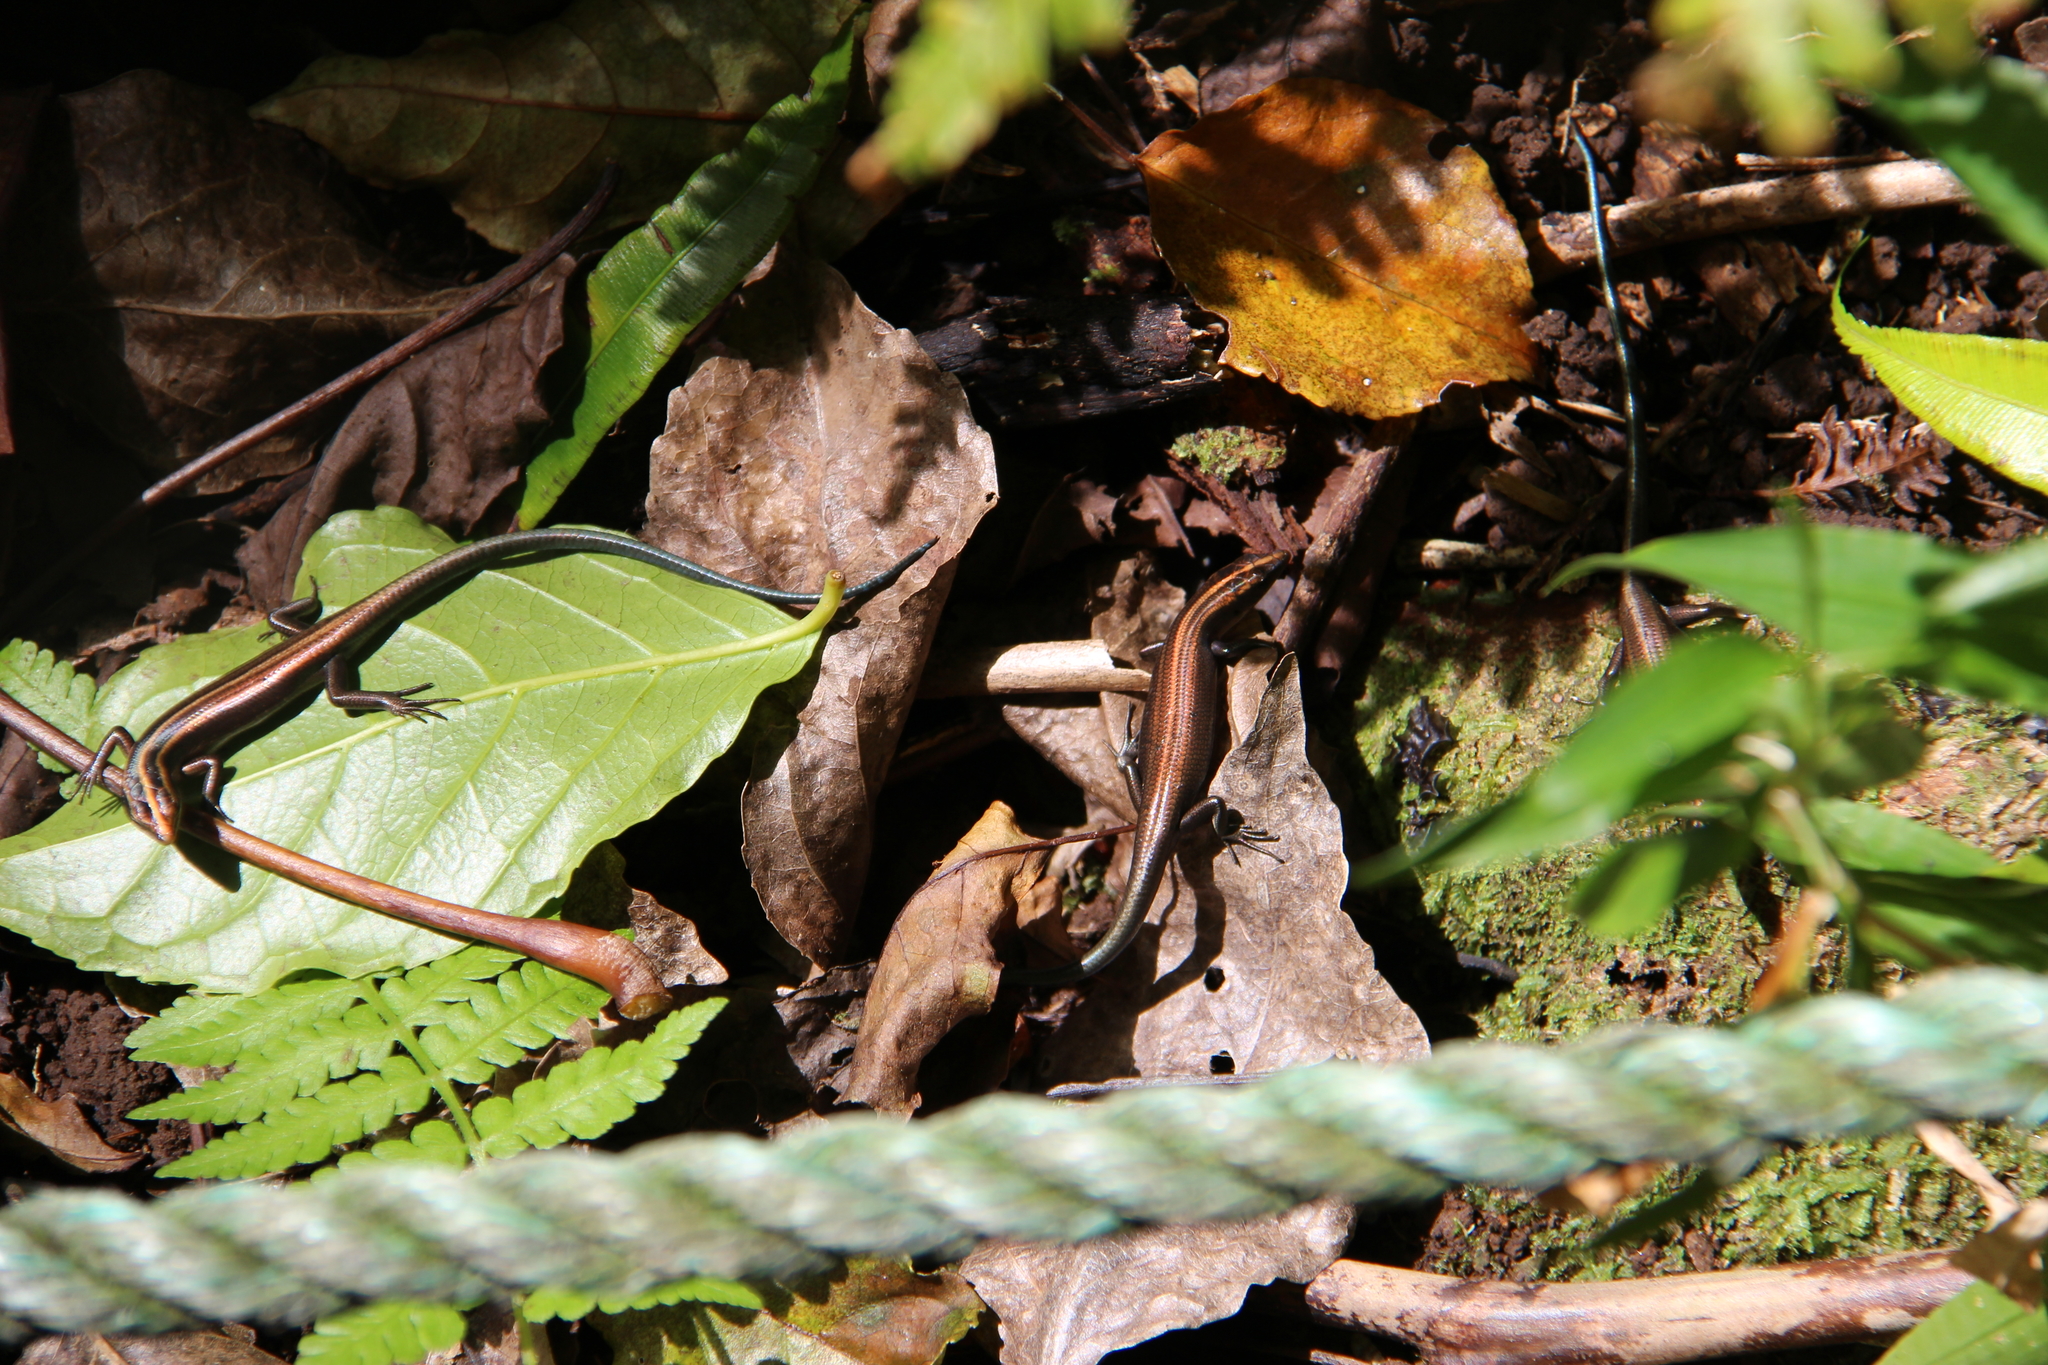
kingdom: Animalia
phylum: Chordata
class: Squamata
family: Scincidae
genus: Emoia
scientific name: Emoia impar
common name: Azure-tailed skink
